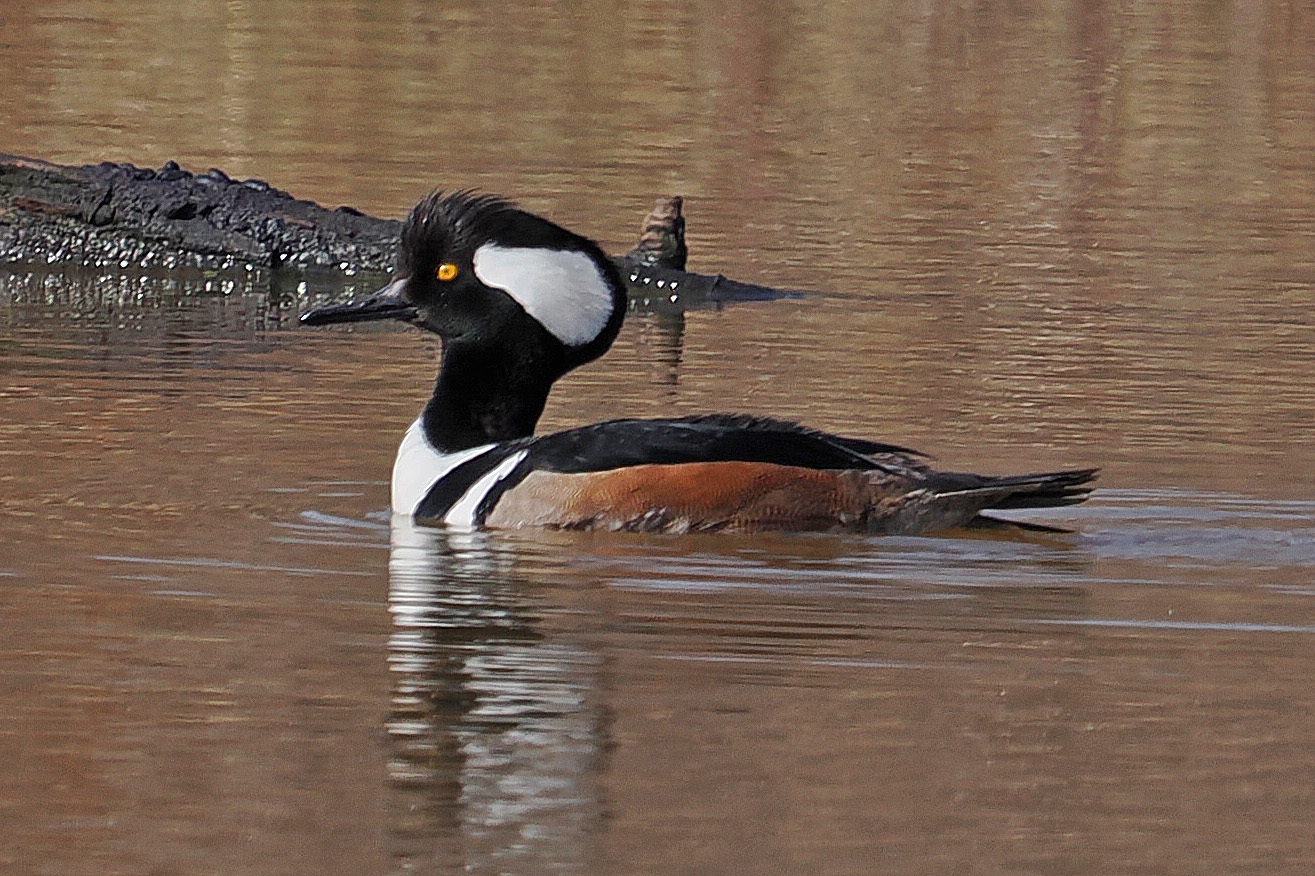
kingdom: Animalia
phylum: Chordata
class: Aves
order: Anseriformes
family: Anatidae
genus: Lophodytes
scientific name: Lophodytes cucullatus
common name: Hooded merganser
